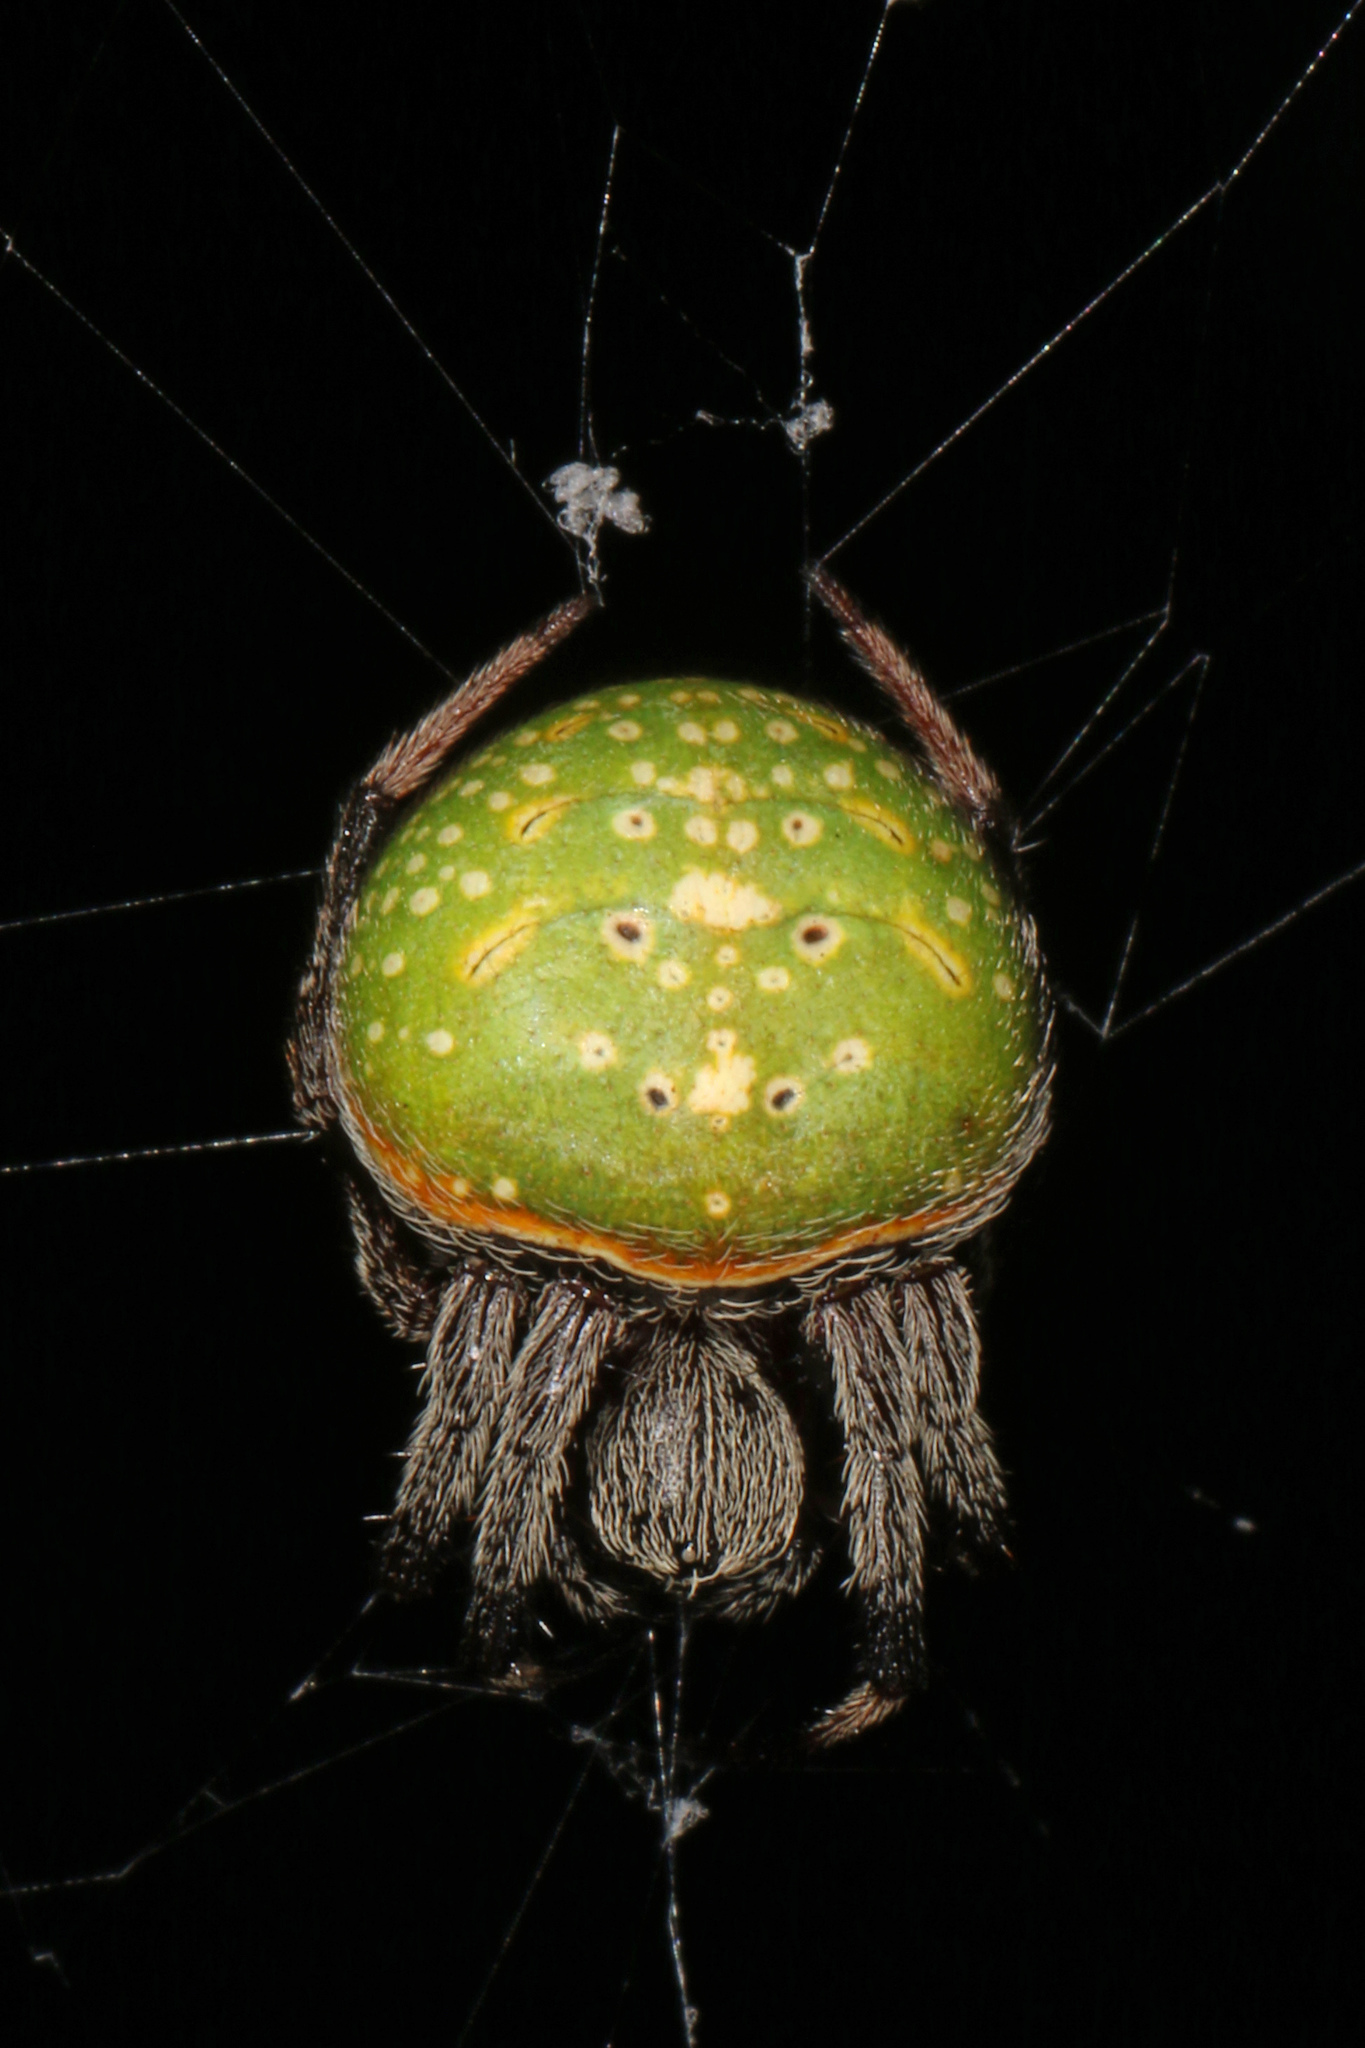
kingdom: Animalia
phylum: Arthropoda
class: Arachnida
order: Araneae
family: Araneidae
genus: Araneus
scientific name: Araneus apricus
